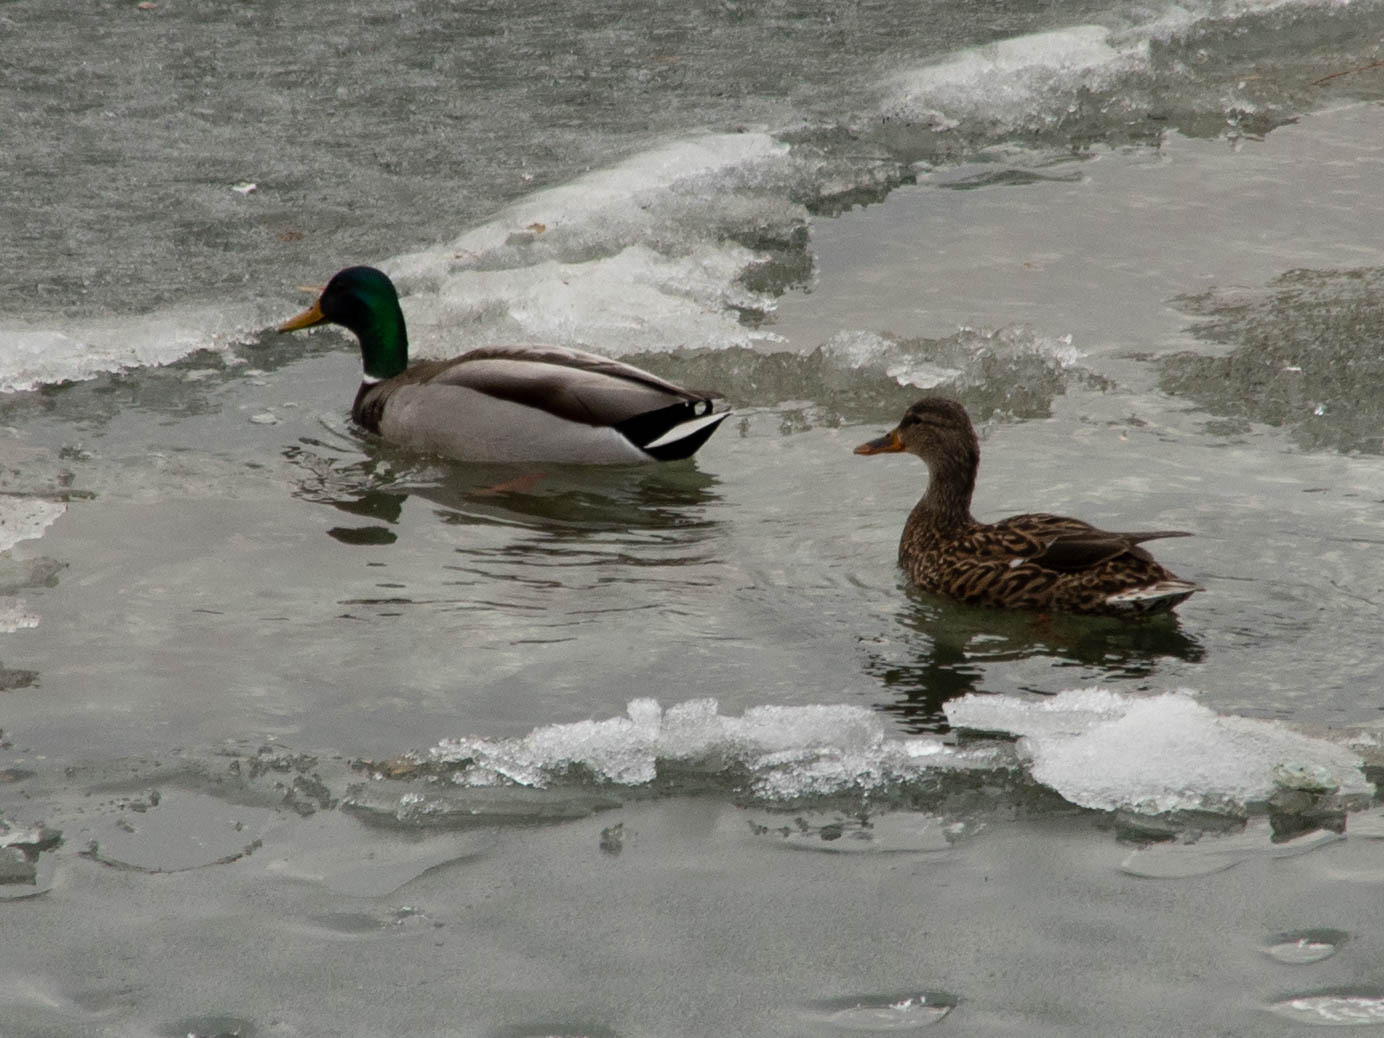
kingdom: Animalia
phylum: Chordata
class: Aves
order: Anseriformes
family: Anatidae
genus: Anas
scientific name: Anas platyrhynchos
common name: Mallard
